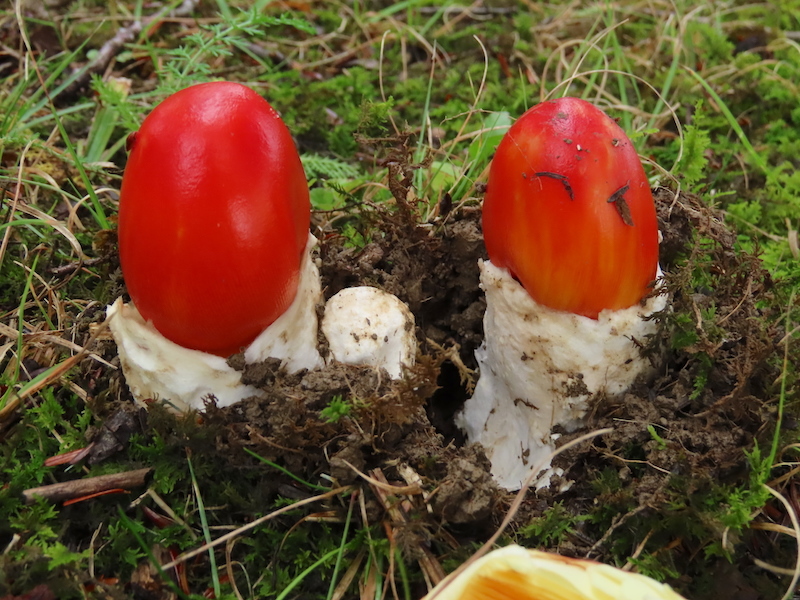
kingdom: Fungi
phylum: Basidiomycota
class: Agaricomycetes
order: Agaricales
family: Amanitaceae
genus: Amanita
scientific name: Amanita jacksonii
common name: Jackson's slender caesar
